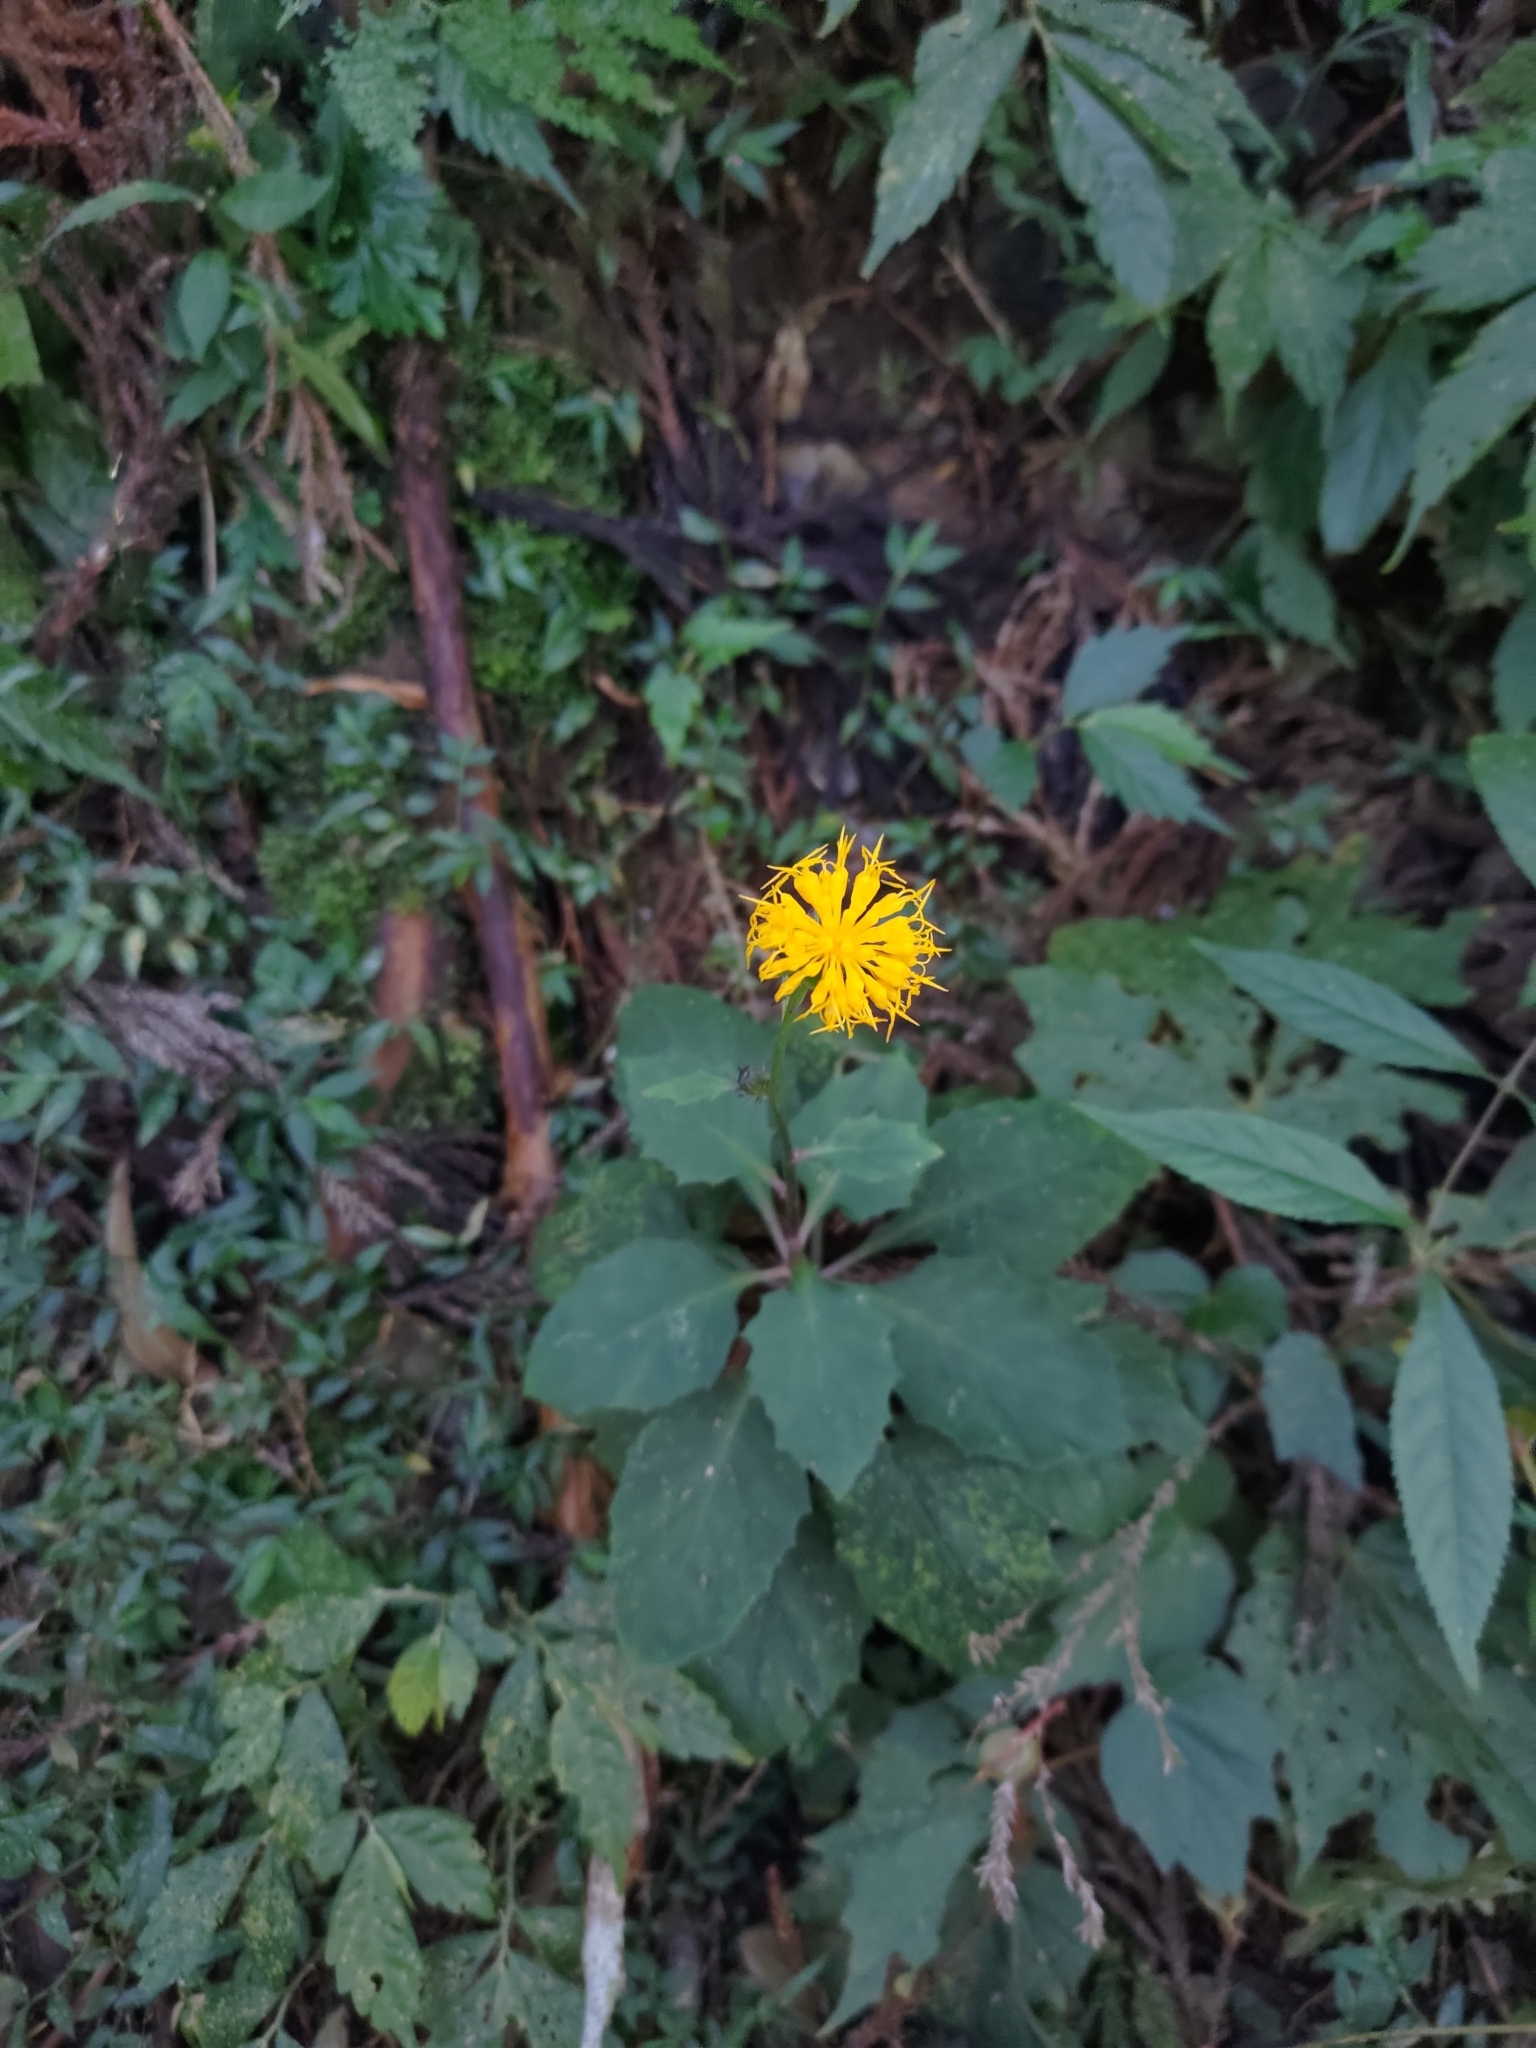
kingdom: Plantae
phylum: Tracheophyta
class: Magnoliopsida
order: Asterales
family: Asteraceae
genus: Gynura
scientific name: Gynura japonica
